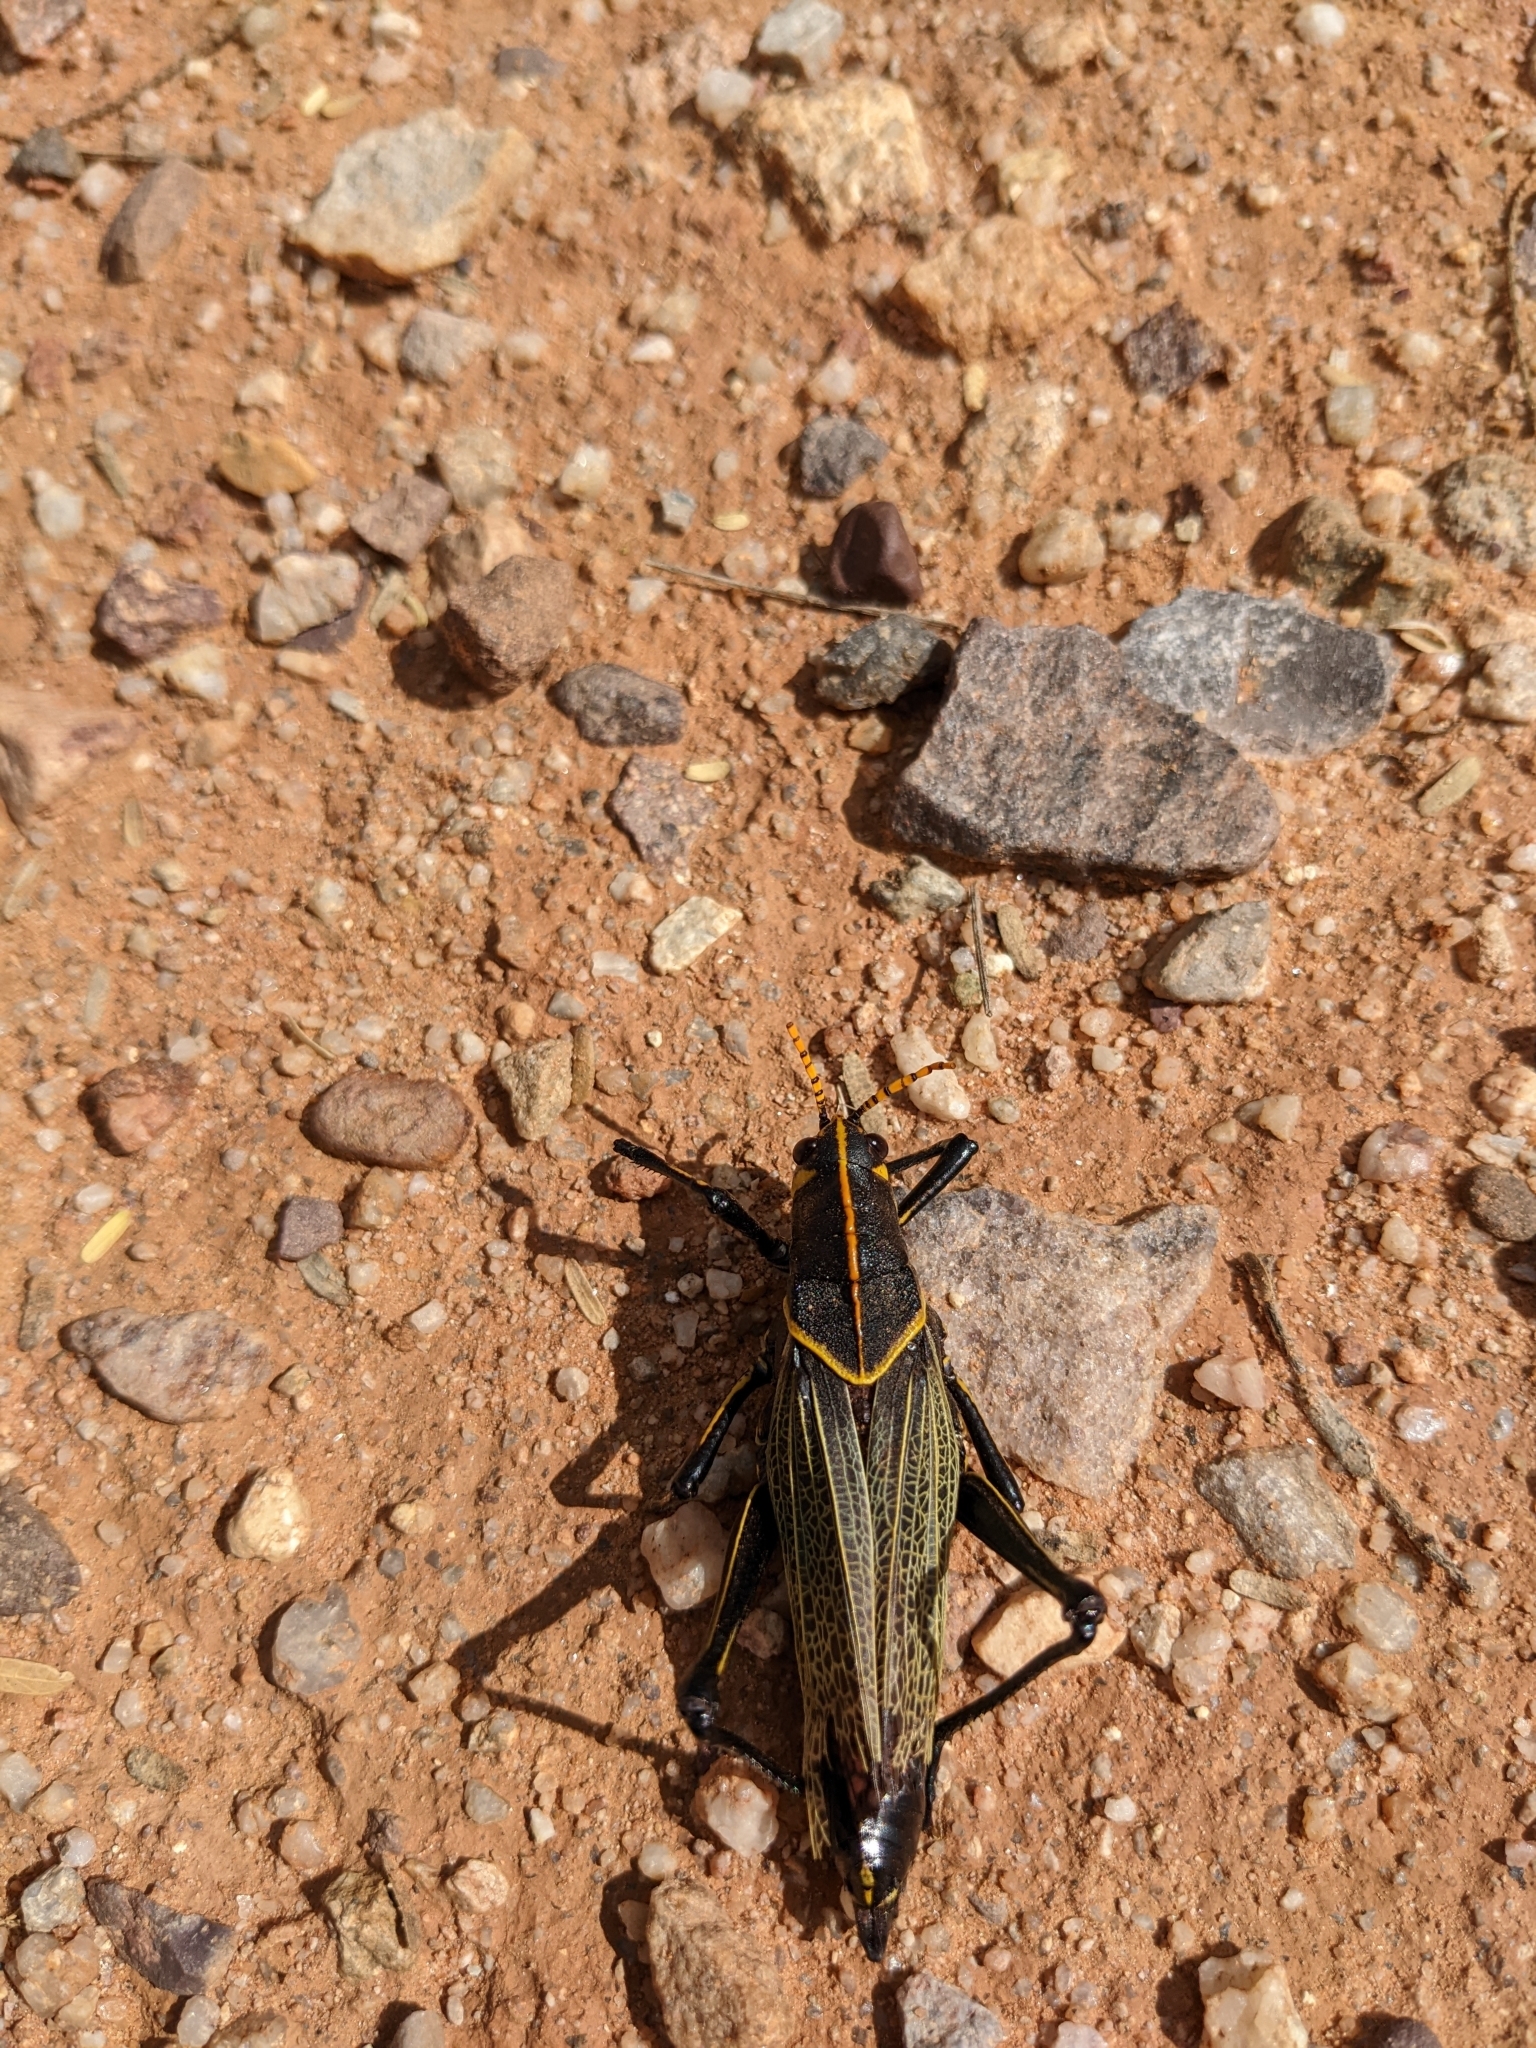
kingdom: Animalia
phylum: Arthropoda
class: Insecta
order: Orthoptera
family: Romaleidae
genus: Romalea
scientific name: Romalea
